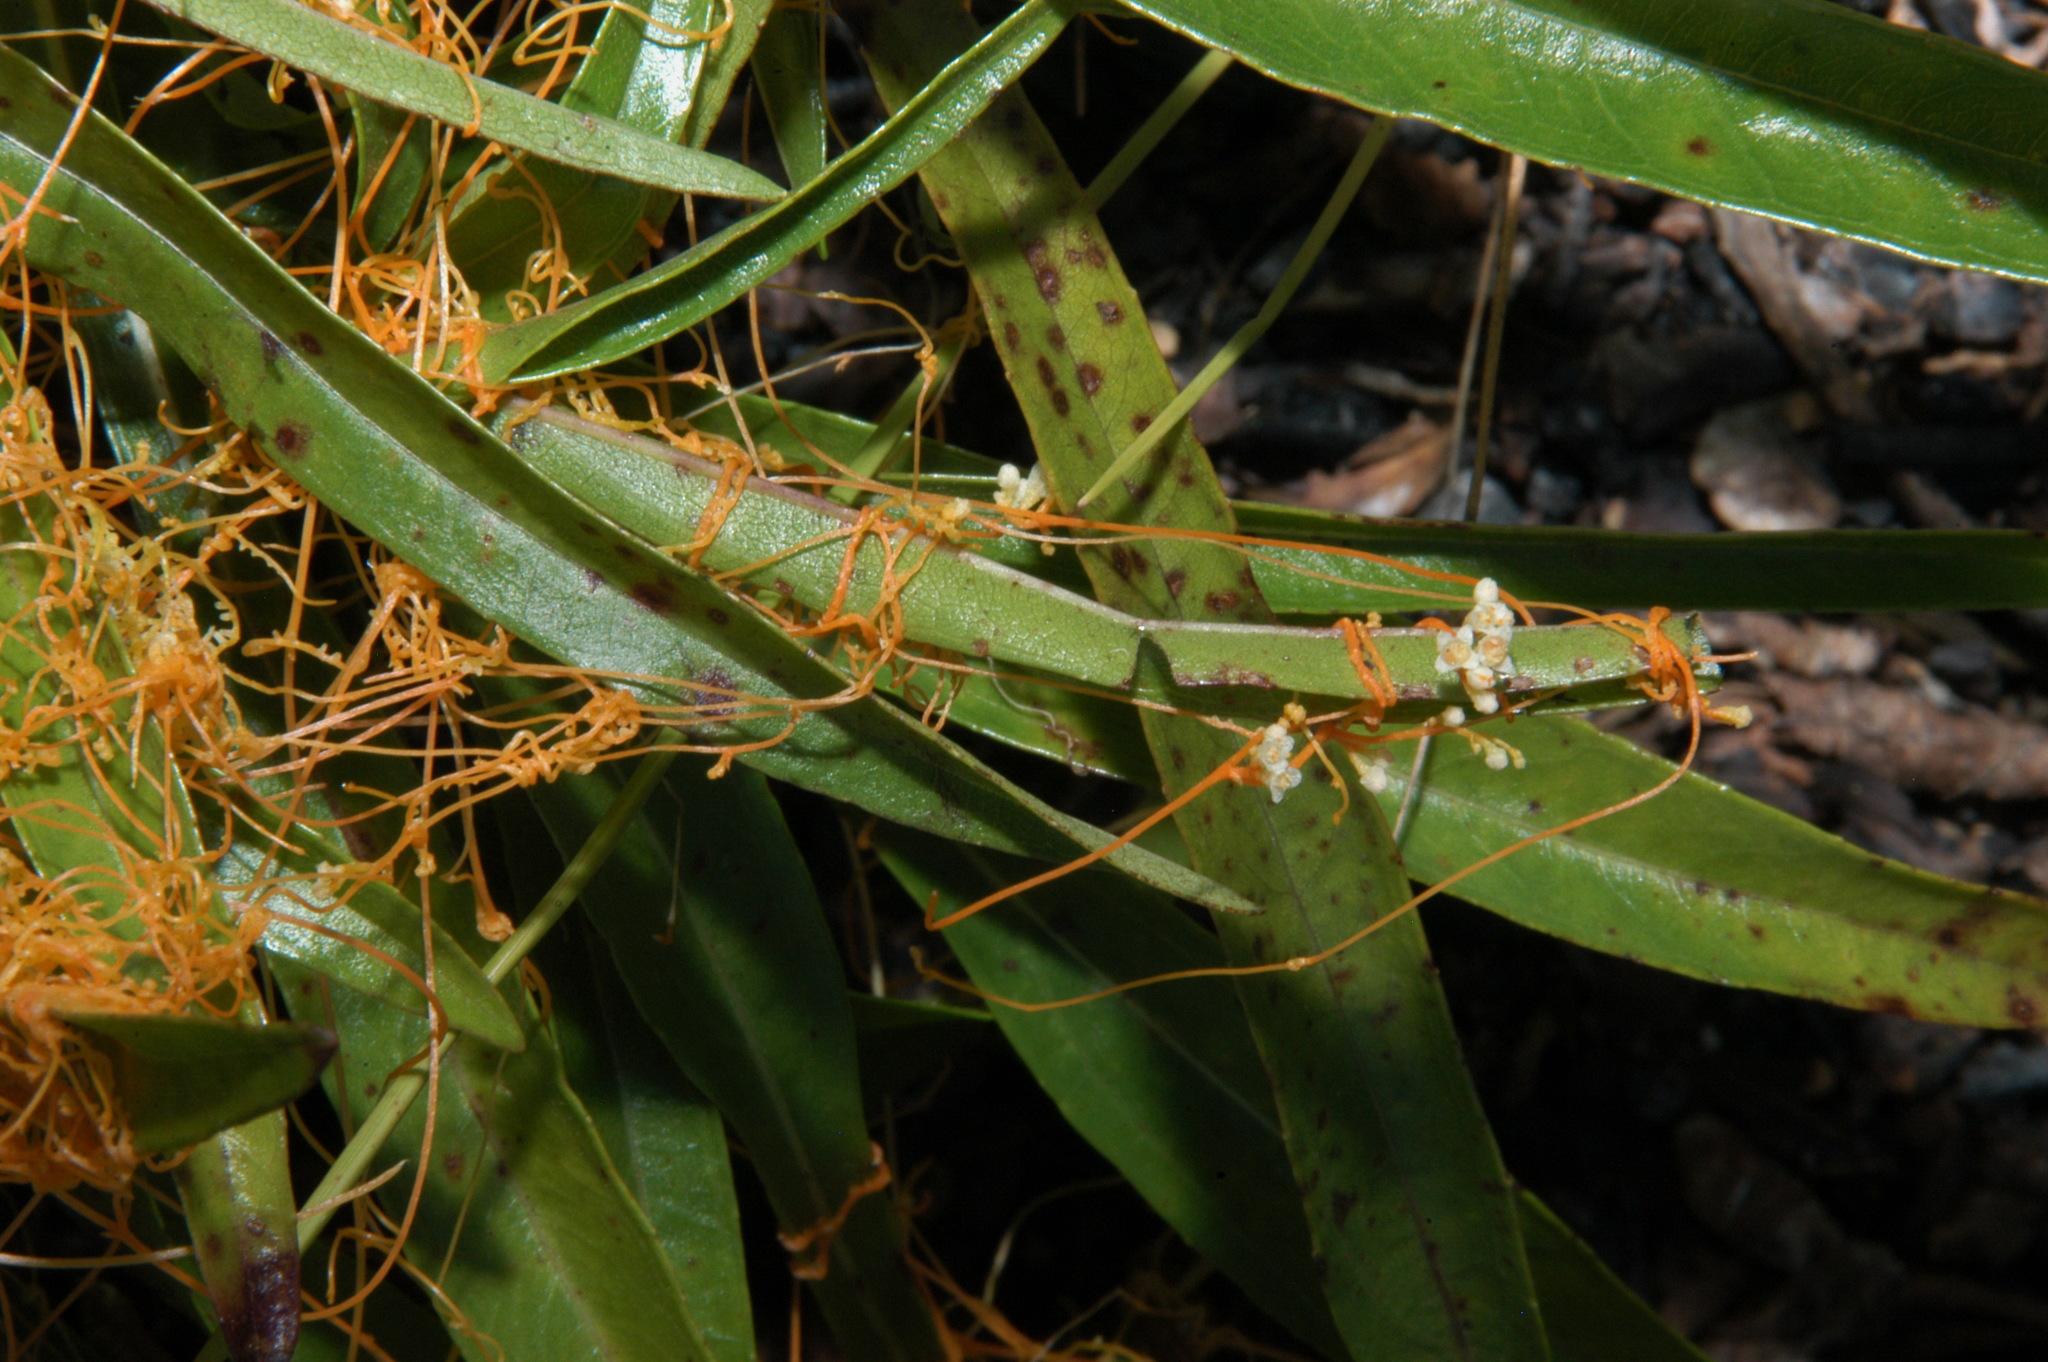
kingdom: Plantae
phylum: Tracheophyta
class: Magnoliopsida
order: Solanales
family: Convolvulaceae
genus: Cuscuta
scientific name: Cuscuta harperi
